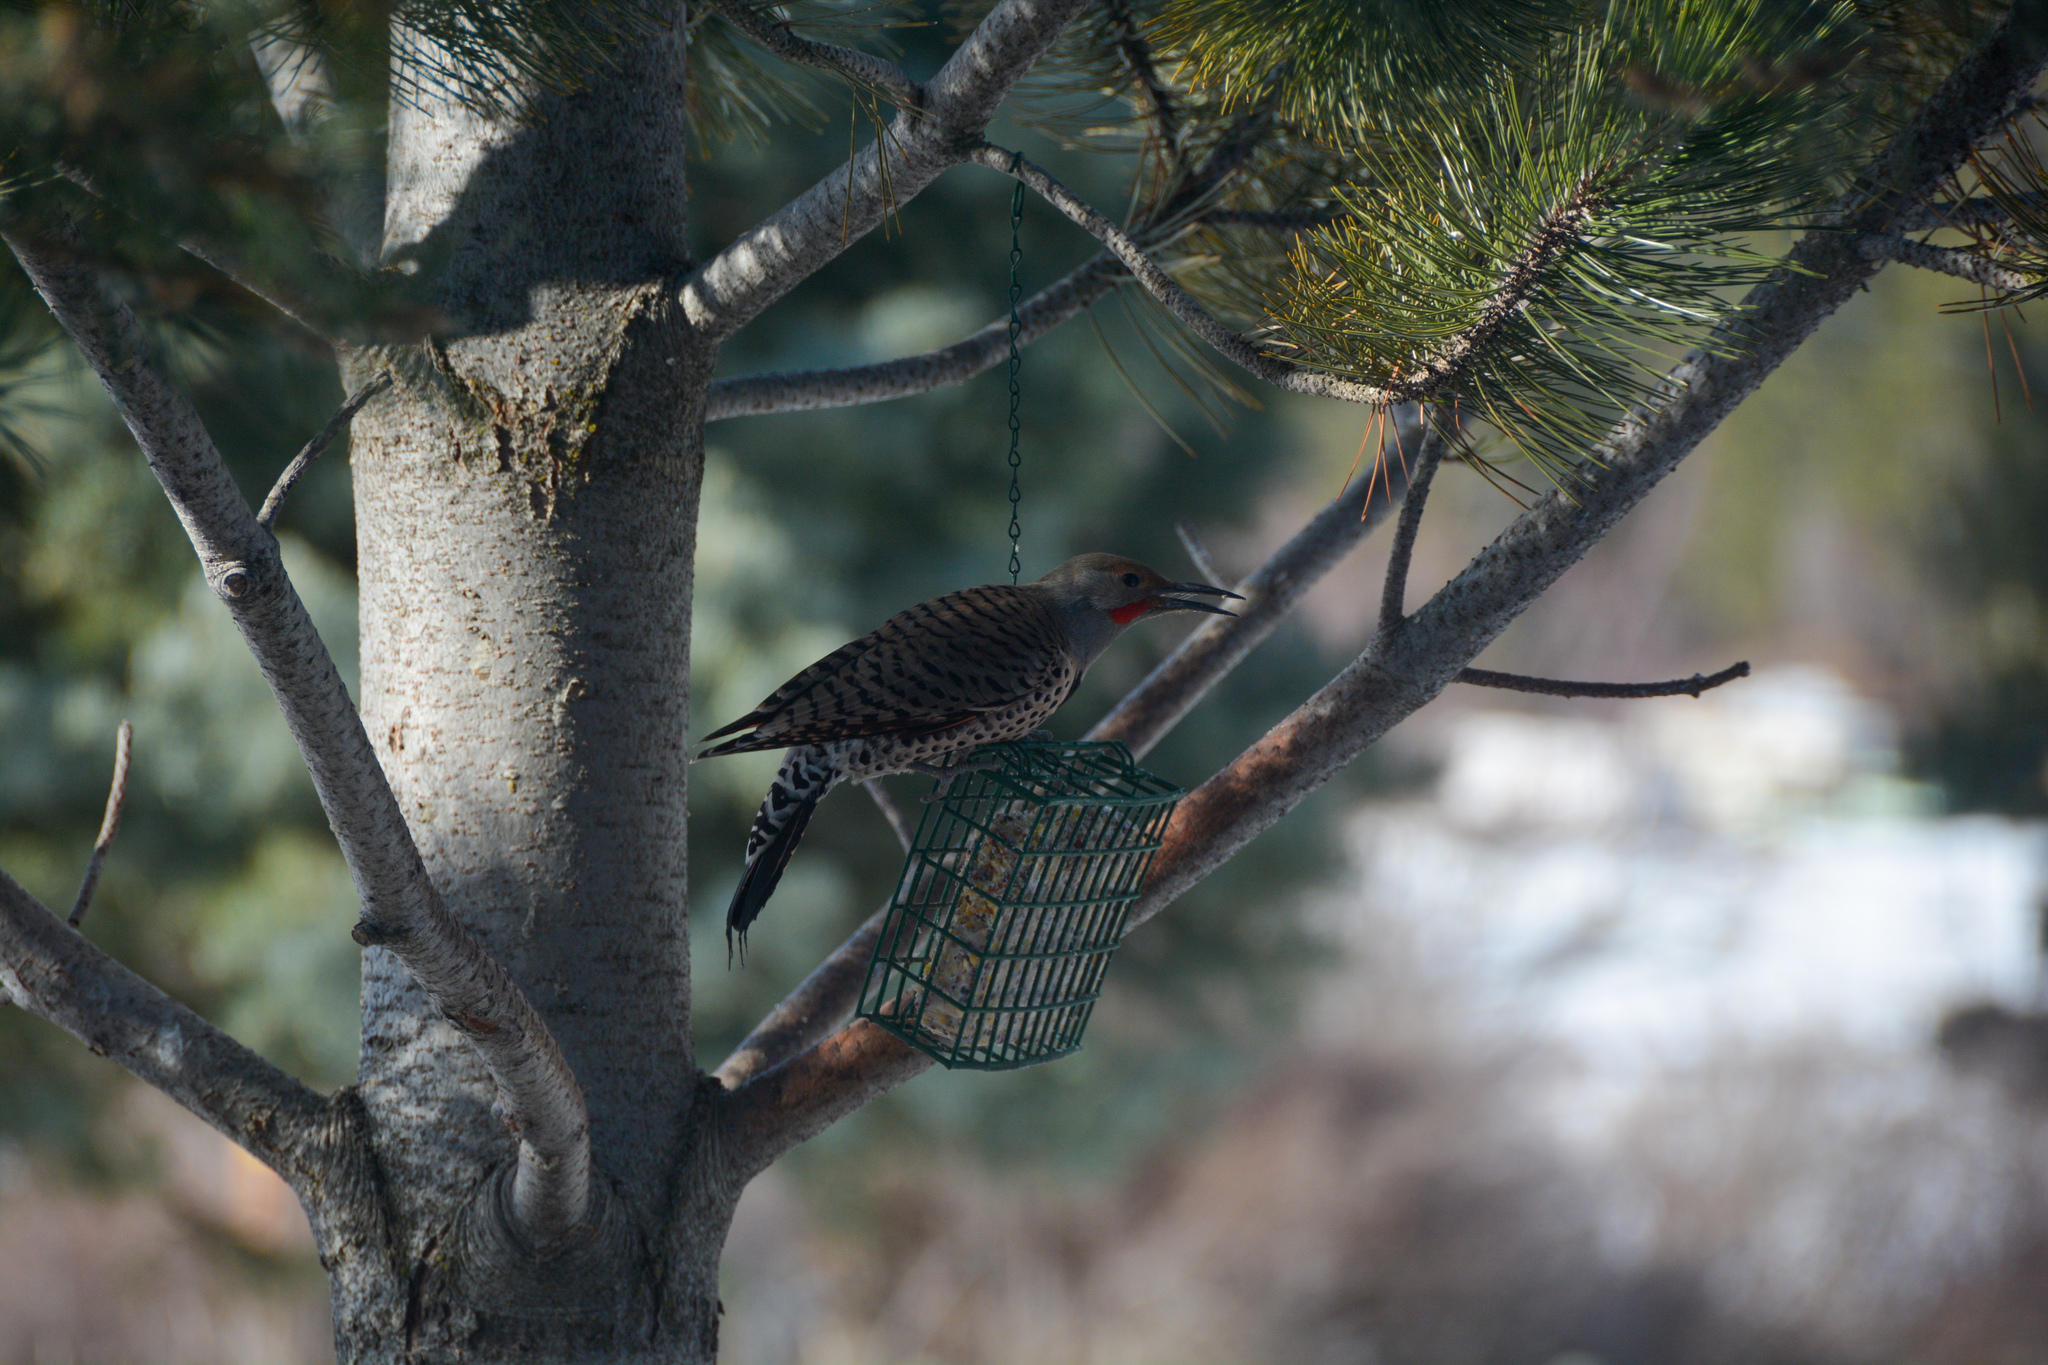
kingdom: Animalia
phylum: Chordata
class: Aves
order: Piciformes
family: Picidae
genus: Colaptes
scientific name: Colaptes auratus
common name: Northern flicker
